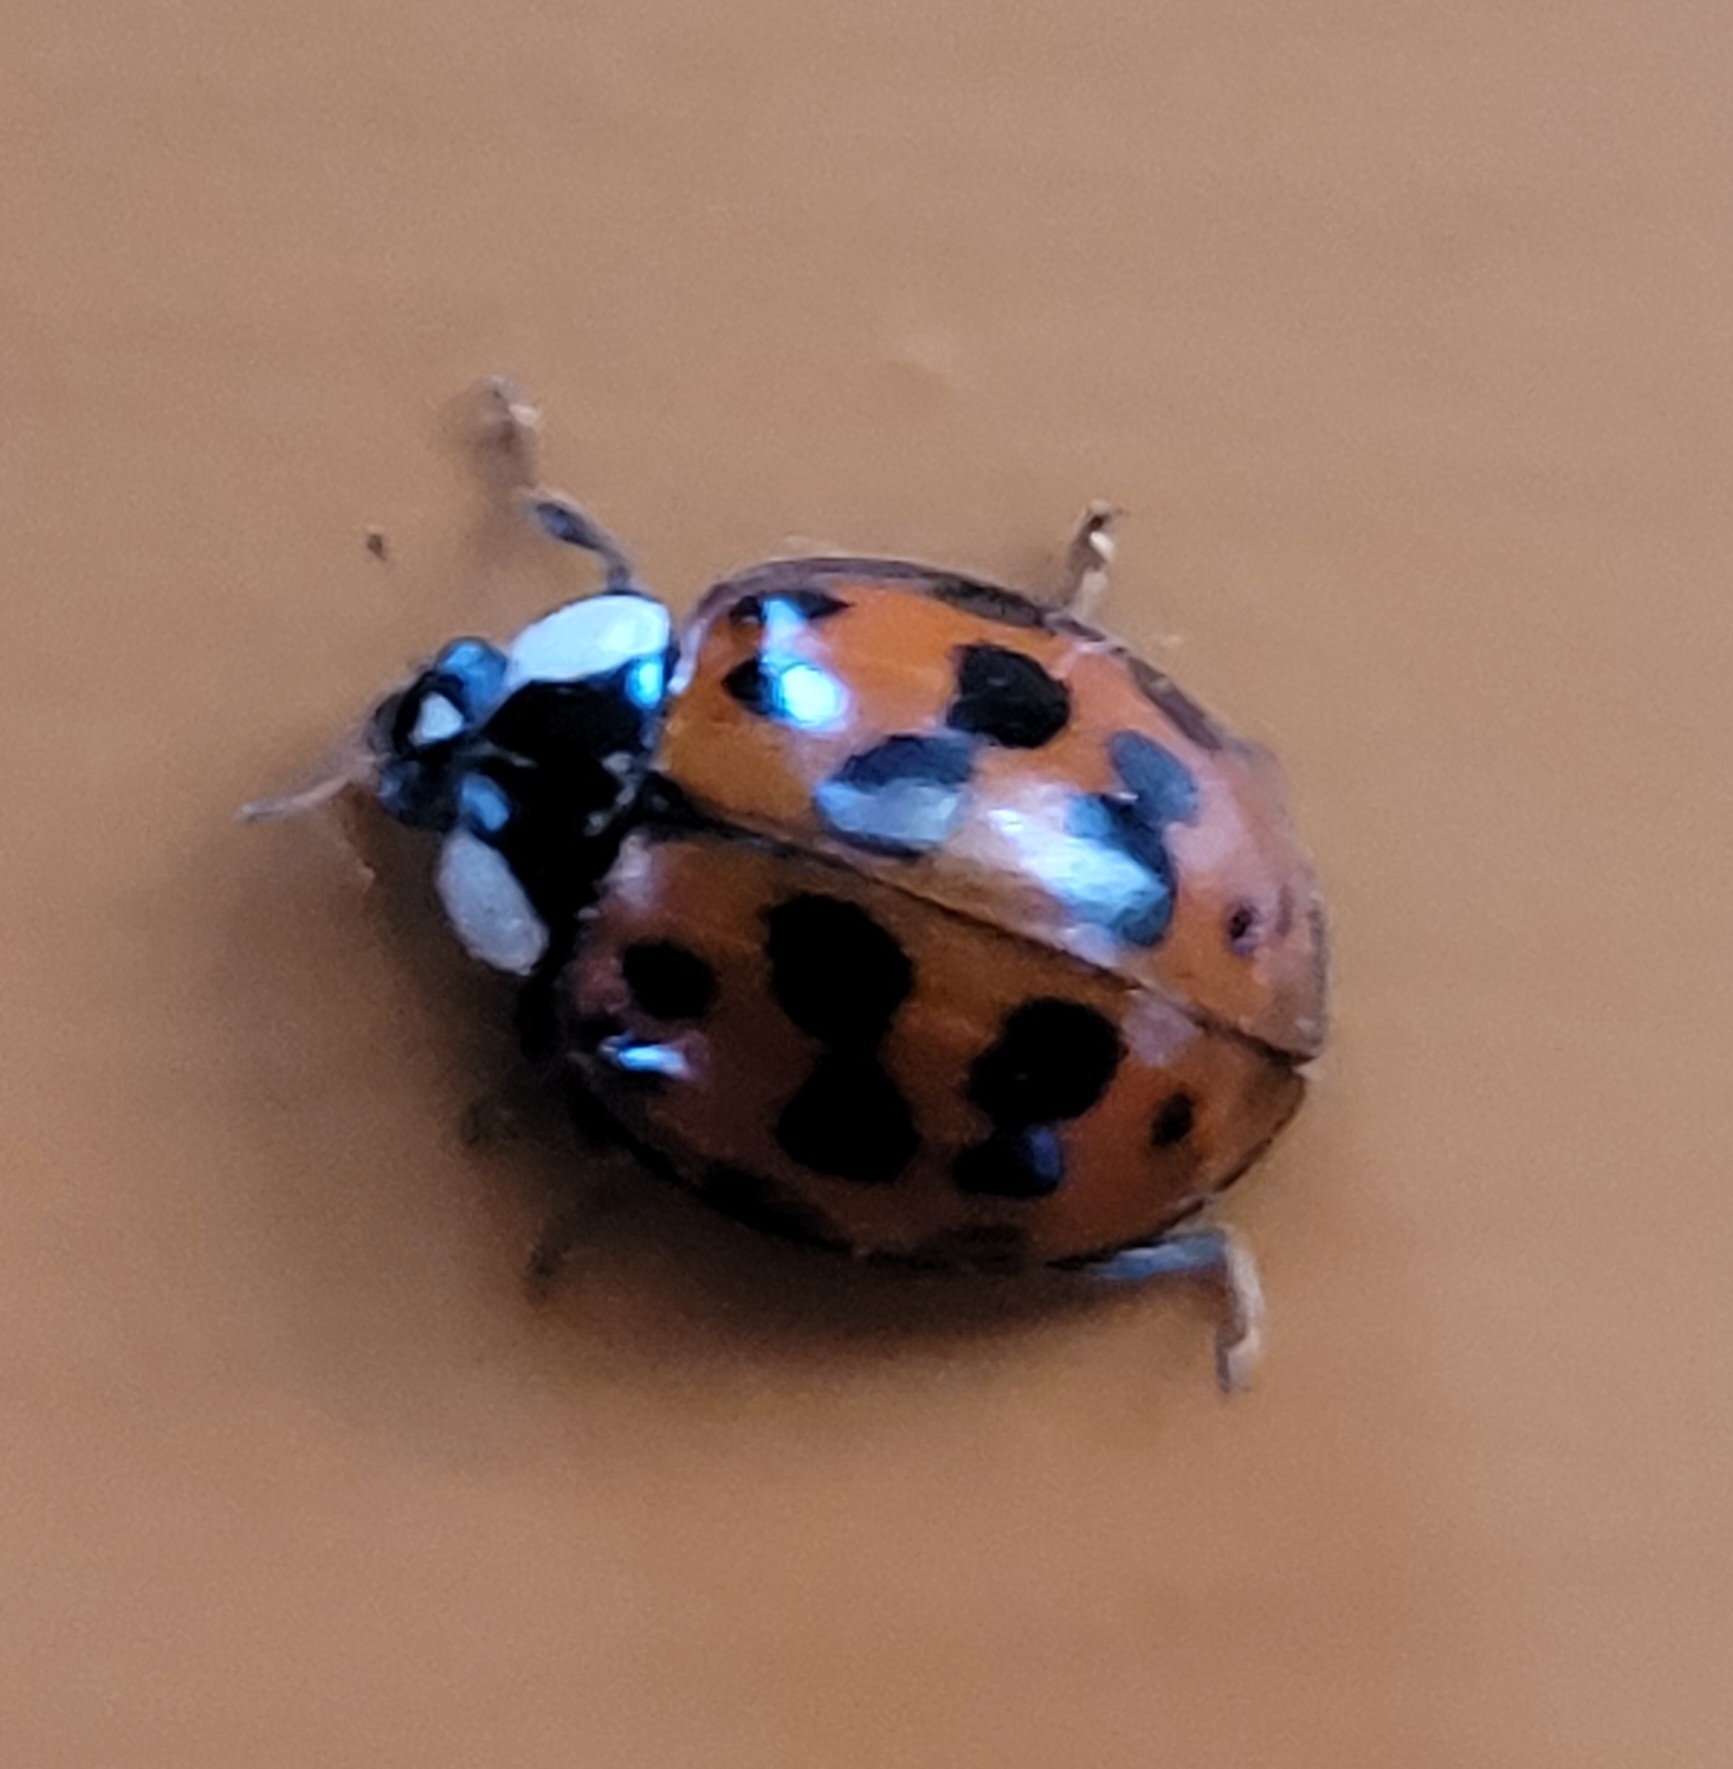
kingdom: Animalia
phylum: Arthropoda
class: Insecta
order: Coleoptera
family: Coccinellidae
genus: Harmonia
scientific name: Harmonia axyridis
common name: Harlequin ladybird
